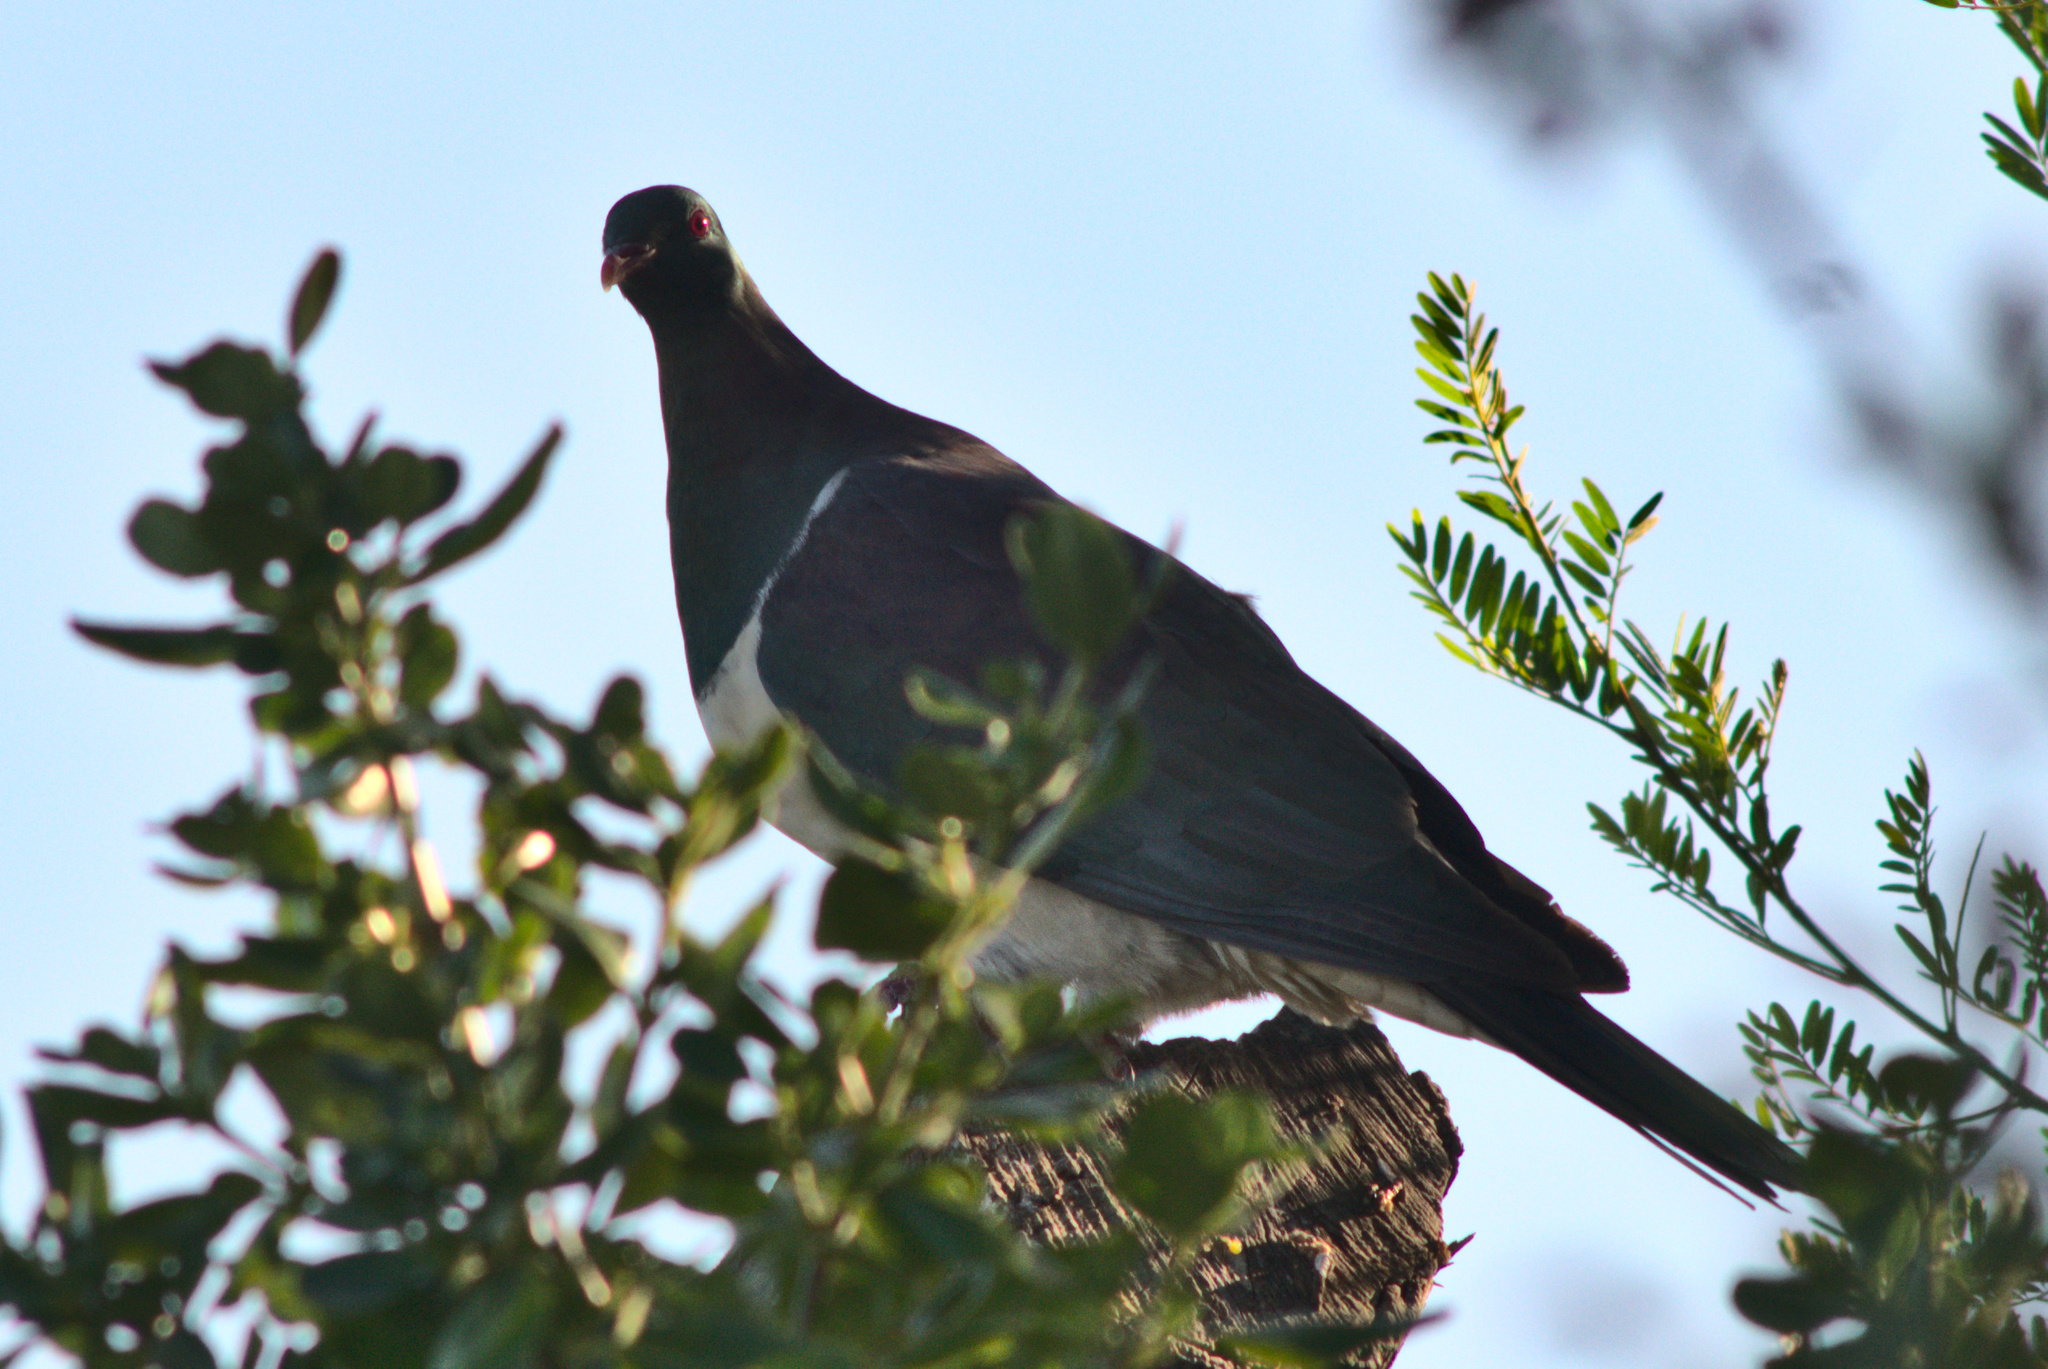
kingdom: Animalia
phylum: Chordata
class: Aves
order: Columbiformes
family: Columbidae
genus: Hemiphaga
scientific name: Hemiphaga novaeseelandiae
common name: New zealand pigeon
